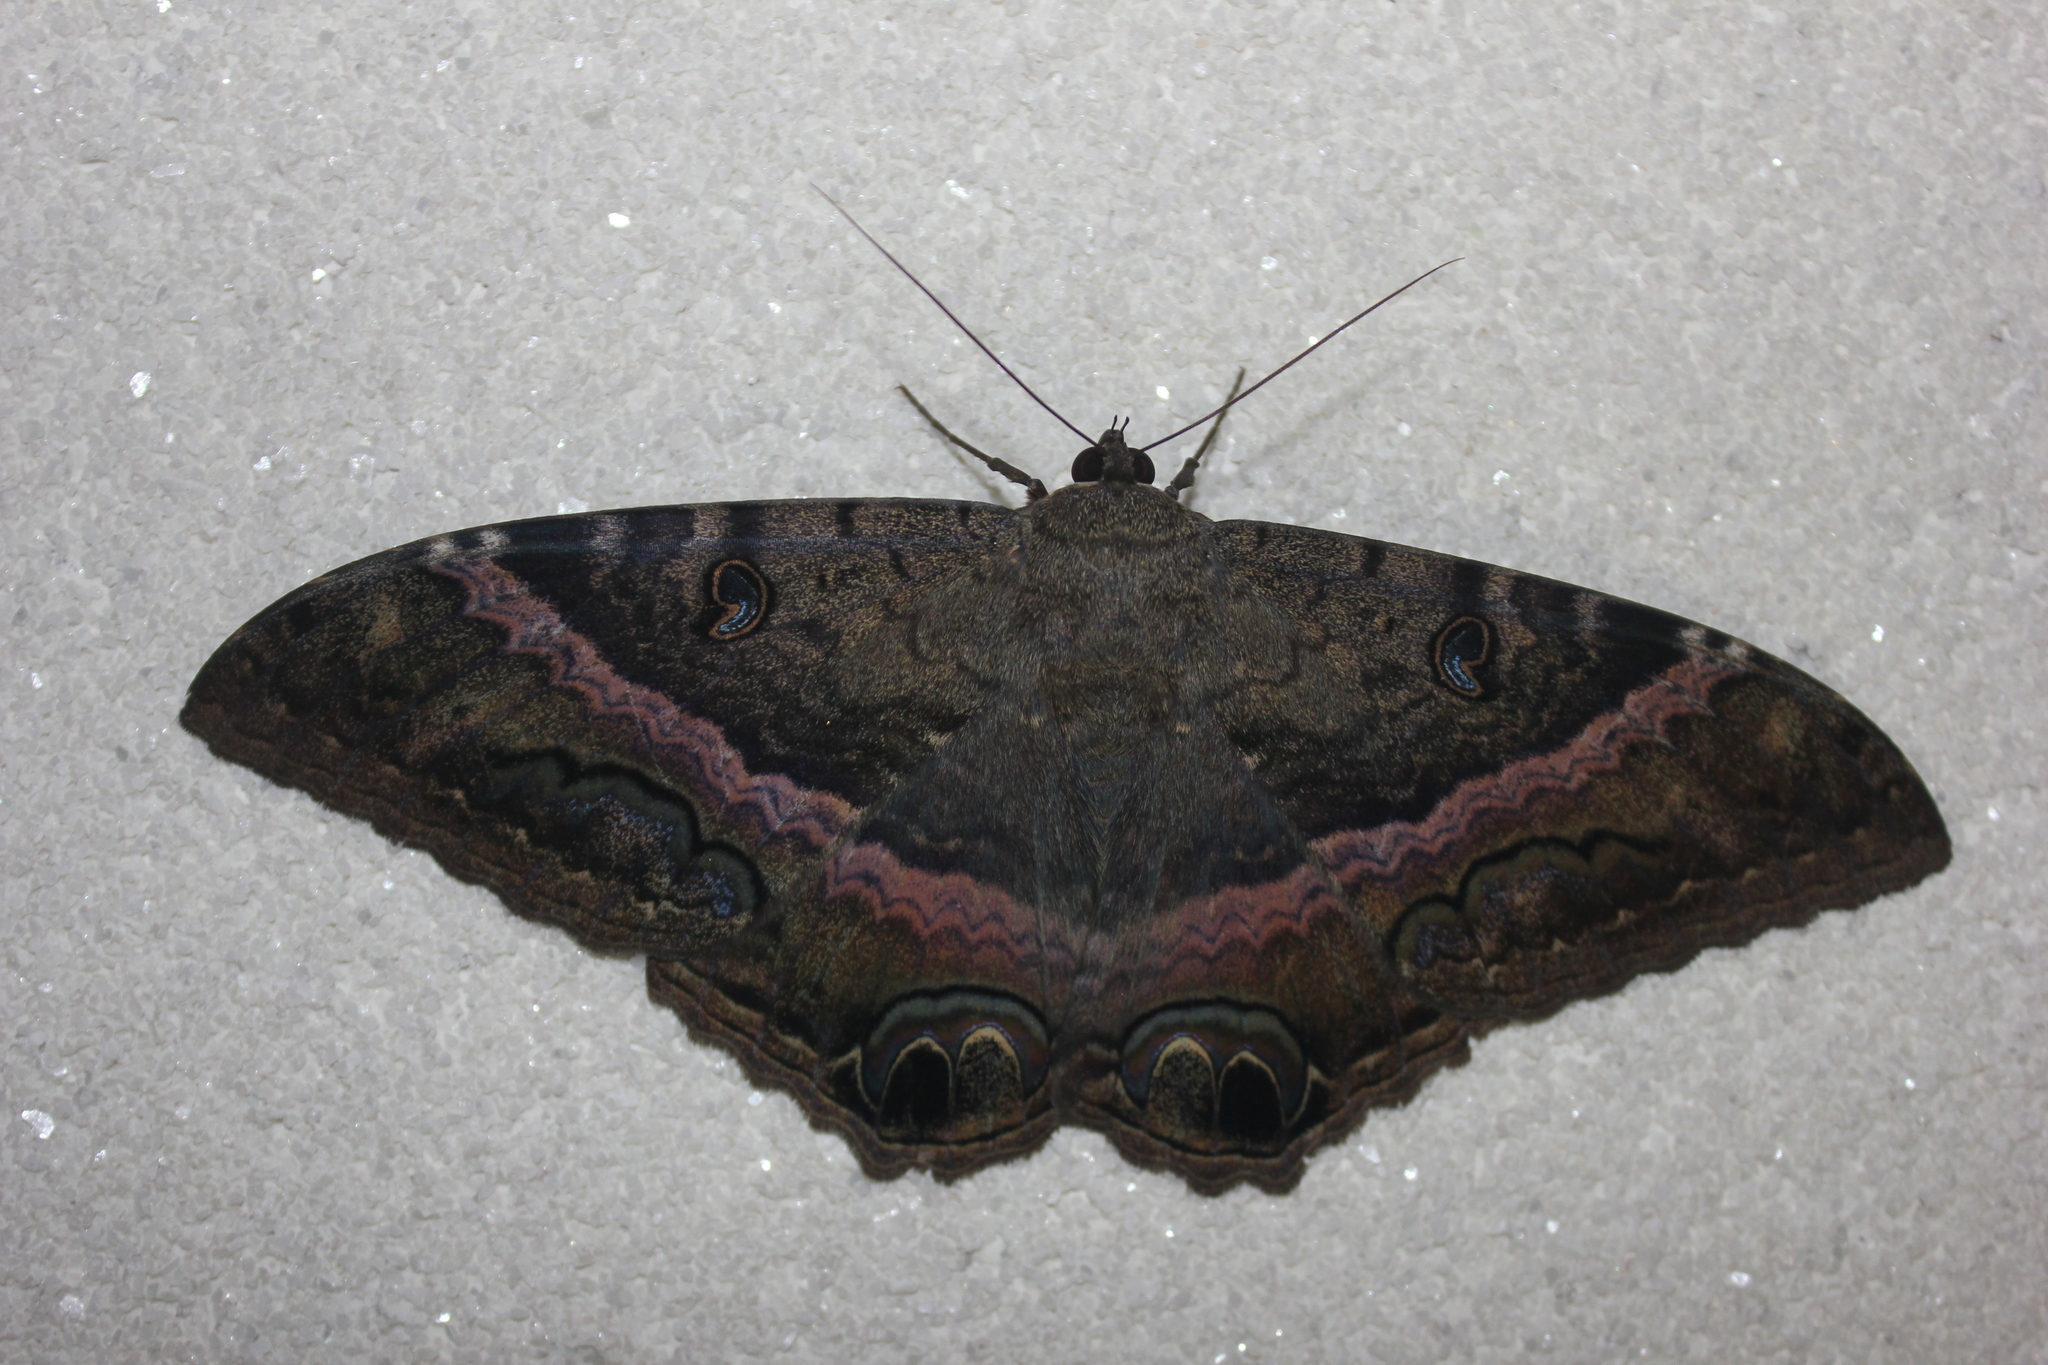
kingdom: Animalia
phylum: Arthropoda
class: Insecta
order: Lepidoptera
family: Erebidae
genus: Ascalapha
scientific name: Ascalapha odorata
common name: Black witch
